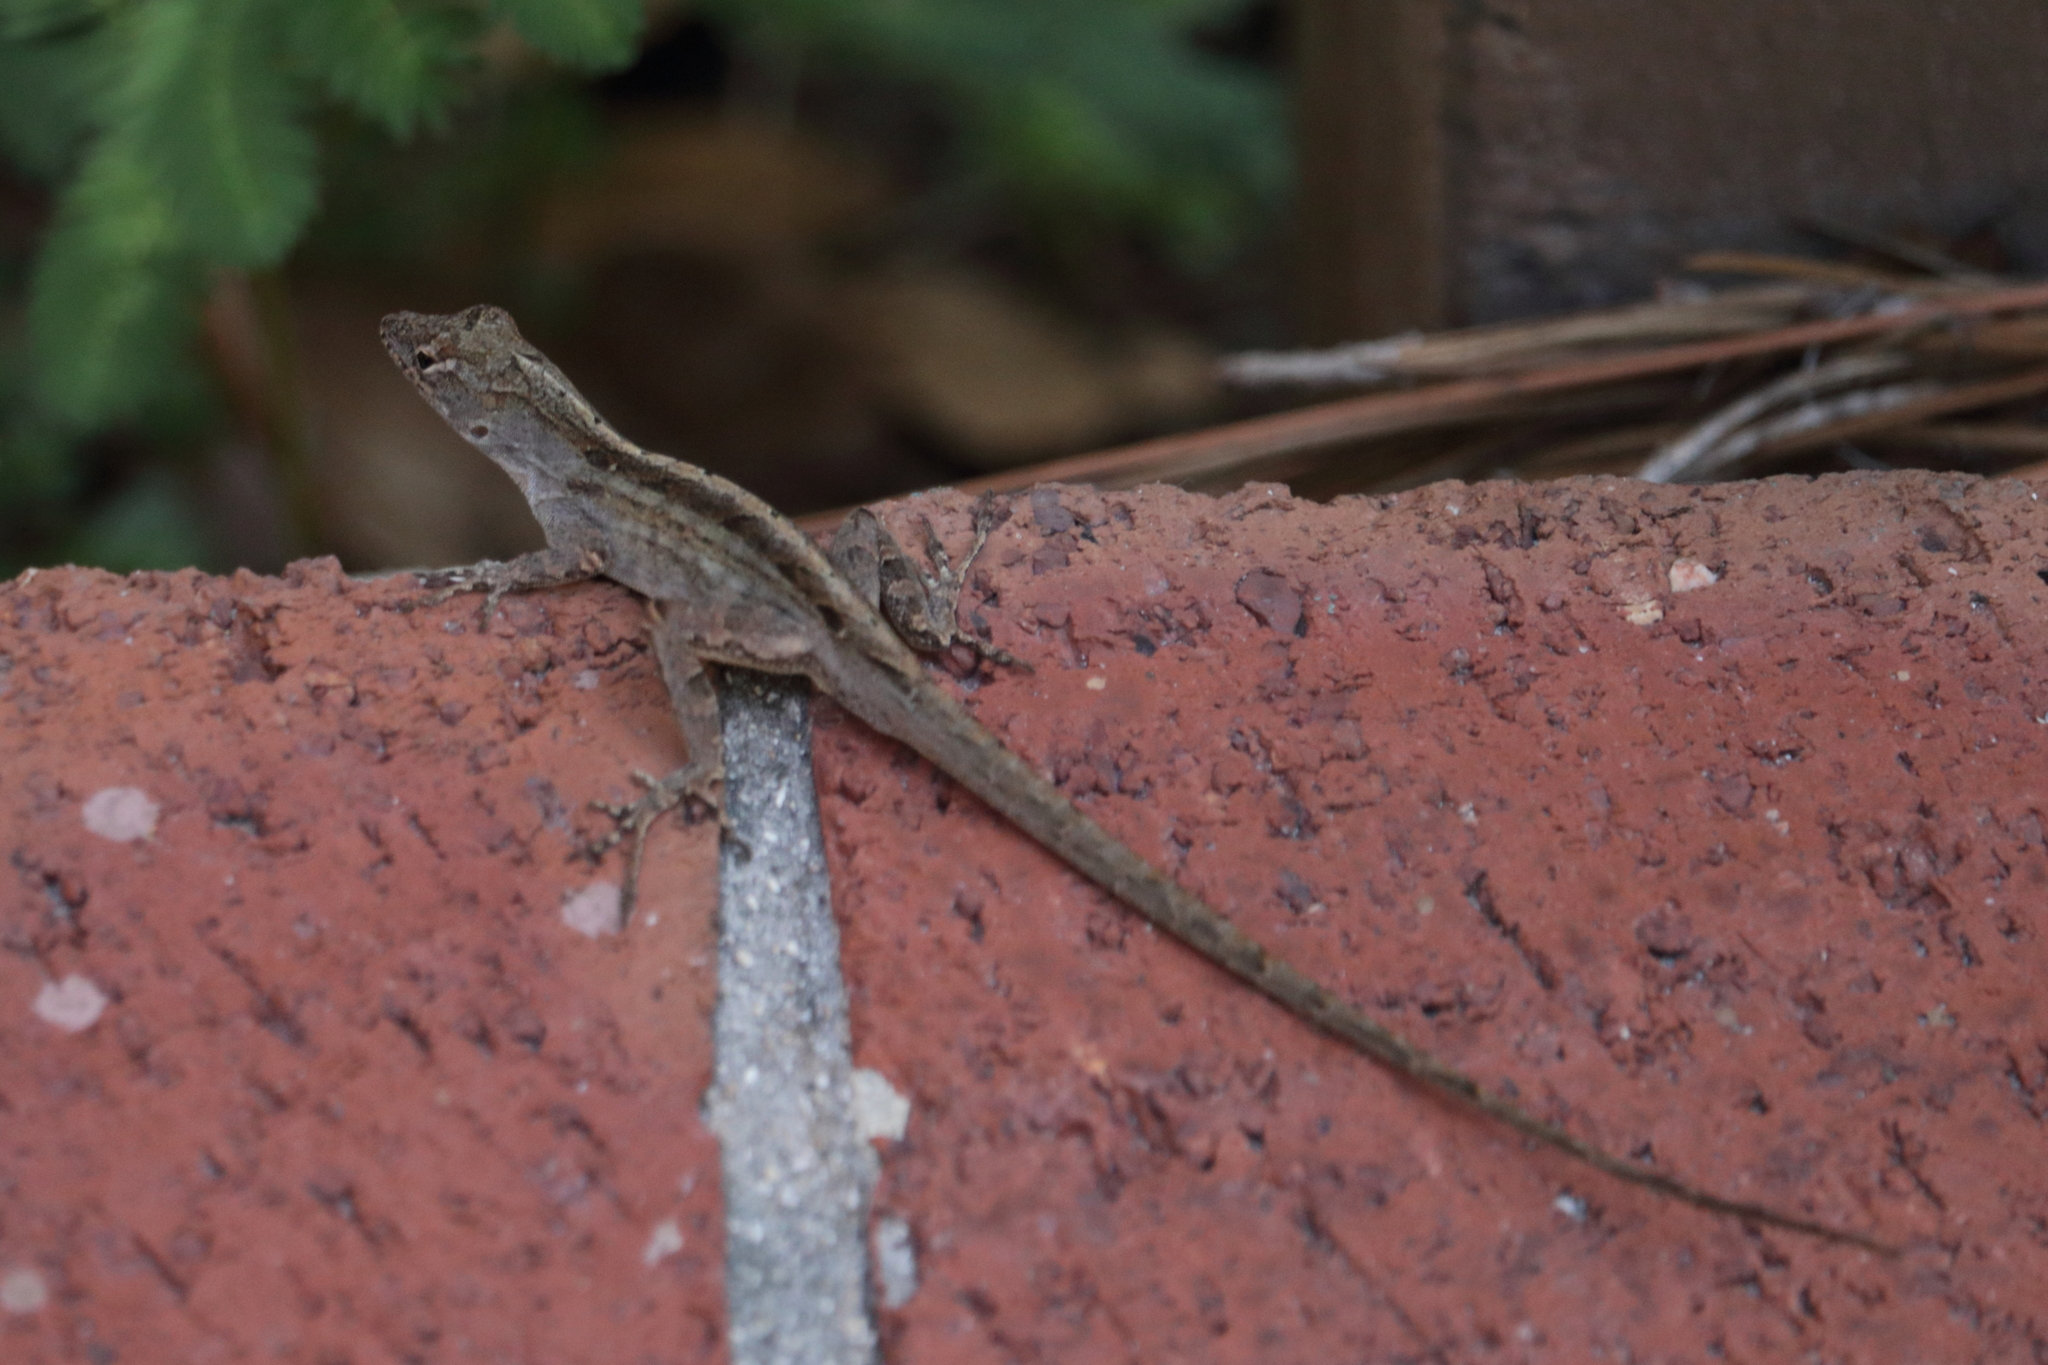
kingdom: Animalia
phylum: Chordata
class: Squamata
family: Dactyloidae
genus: Anolis
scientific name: Anolis sagrei
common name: Brown anole
